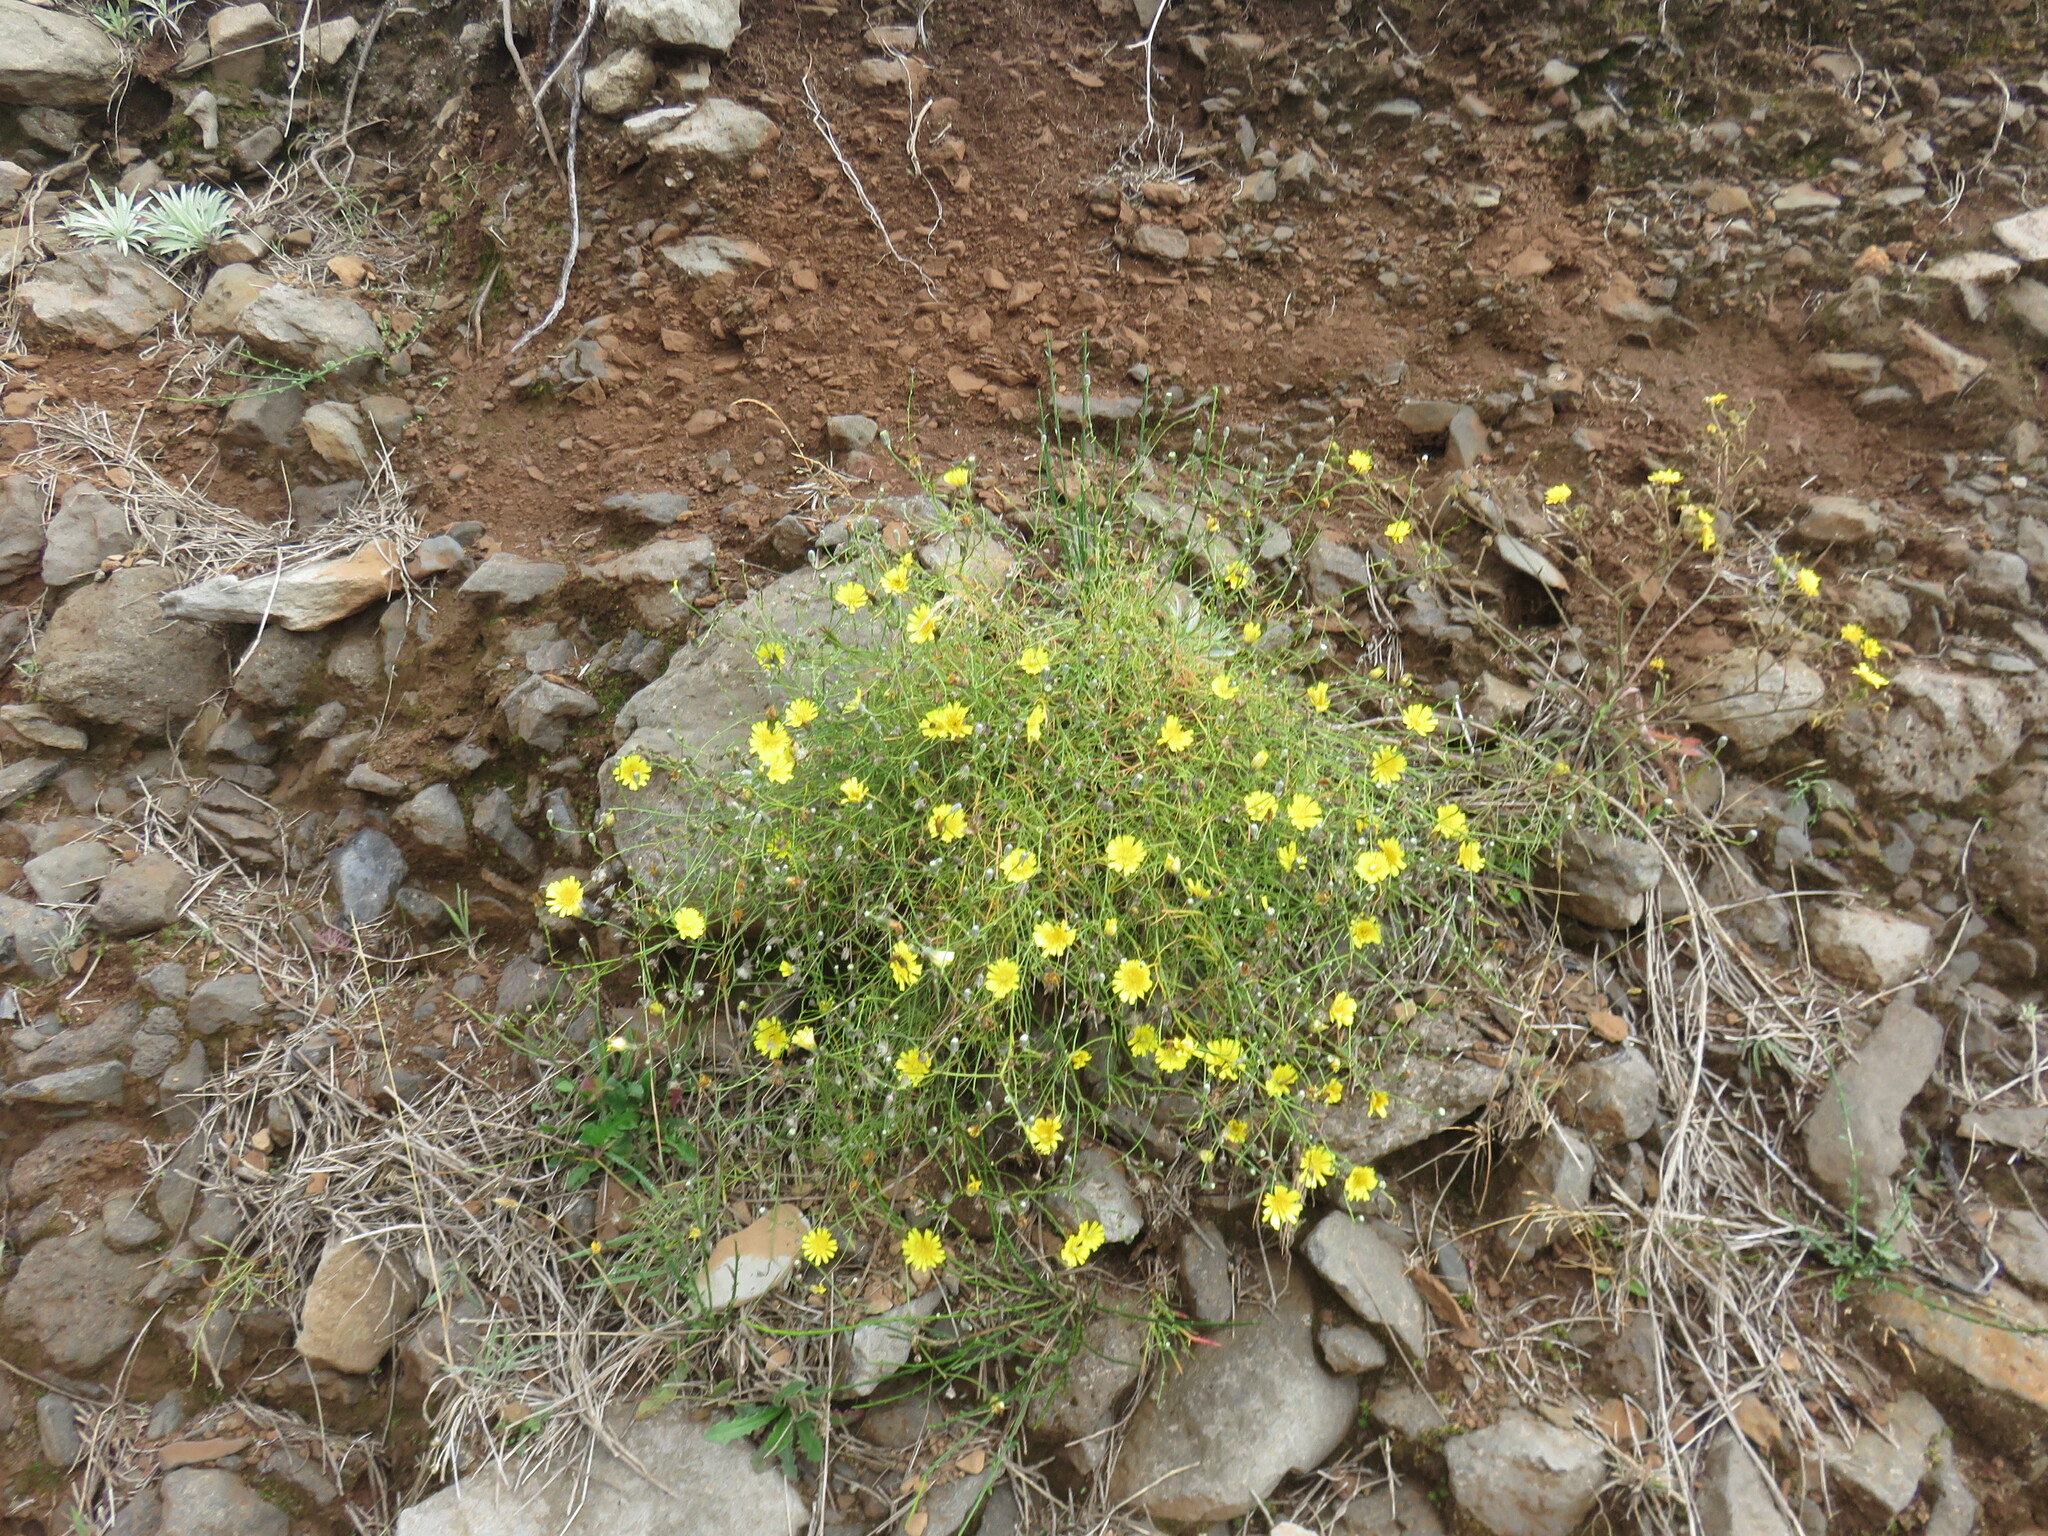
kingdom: Plantae
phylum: Tracheophyta
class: Magnoliopsida
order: Asterales
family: Asteraceae
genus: Tolpis
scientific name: Tolpis succulenta
